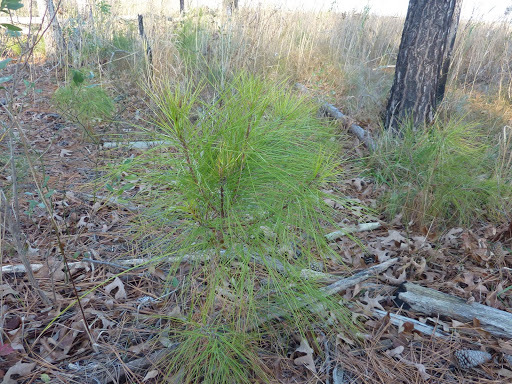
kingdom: Plantae
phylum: Tracheophyta
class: Pinopsida
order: Pinales
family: Pinaceae
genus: Pinus
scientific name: Pinus taeda
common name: Loblolly pine
